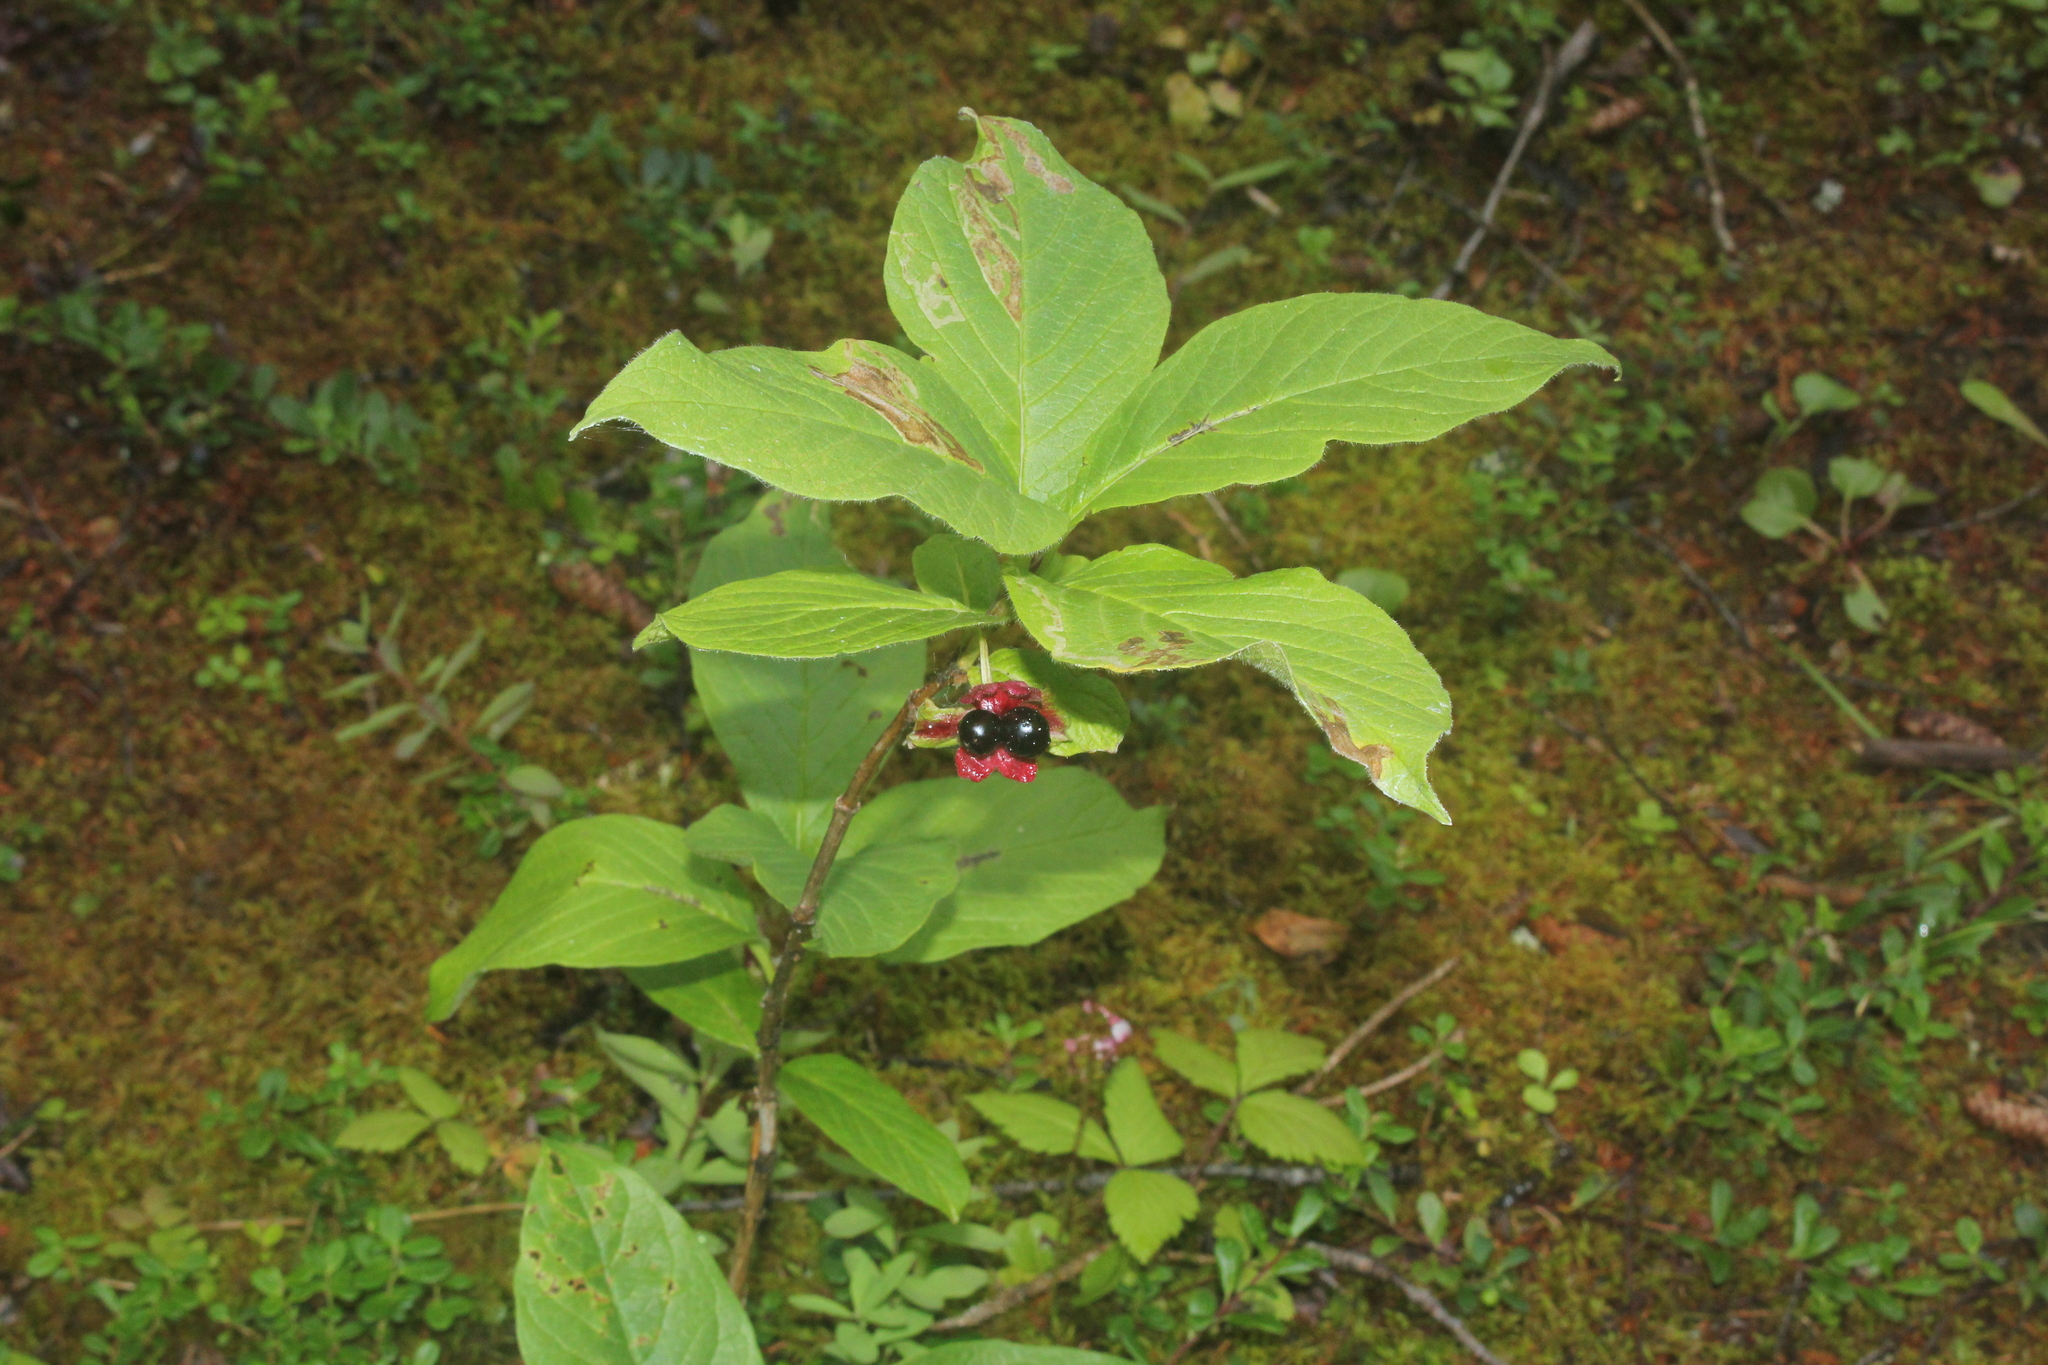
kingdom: Plantae
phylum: Tracheophyta
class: Magnoliopsida
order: Dipsacales
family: Caprifoliaceae
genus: Lonicera
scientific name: Lonicera involucrata
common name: Californian honeysuckle
